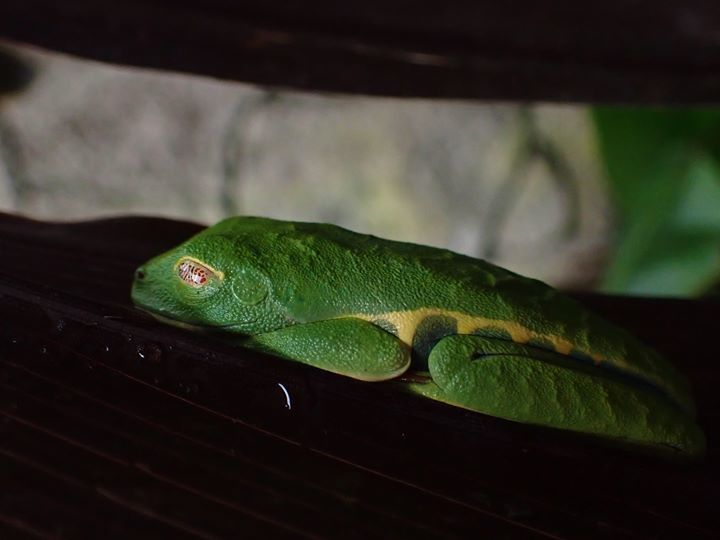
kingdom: Animalia
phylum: Chordata
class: Amphibia
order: Anura
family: Phyllomedusidae
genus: Agalychnis
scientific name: Agalychnis callidryas
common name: Red-eyed treefrog
